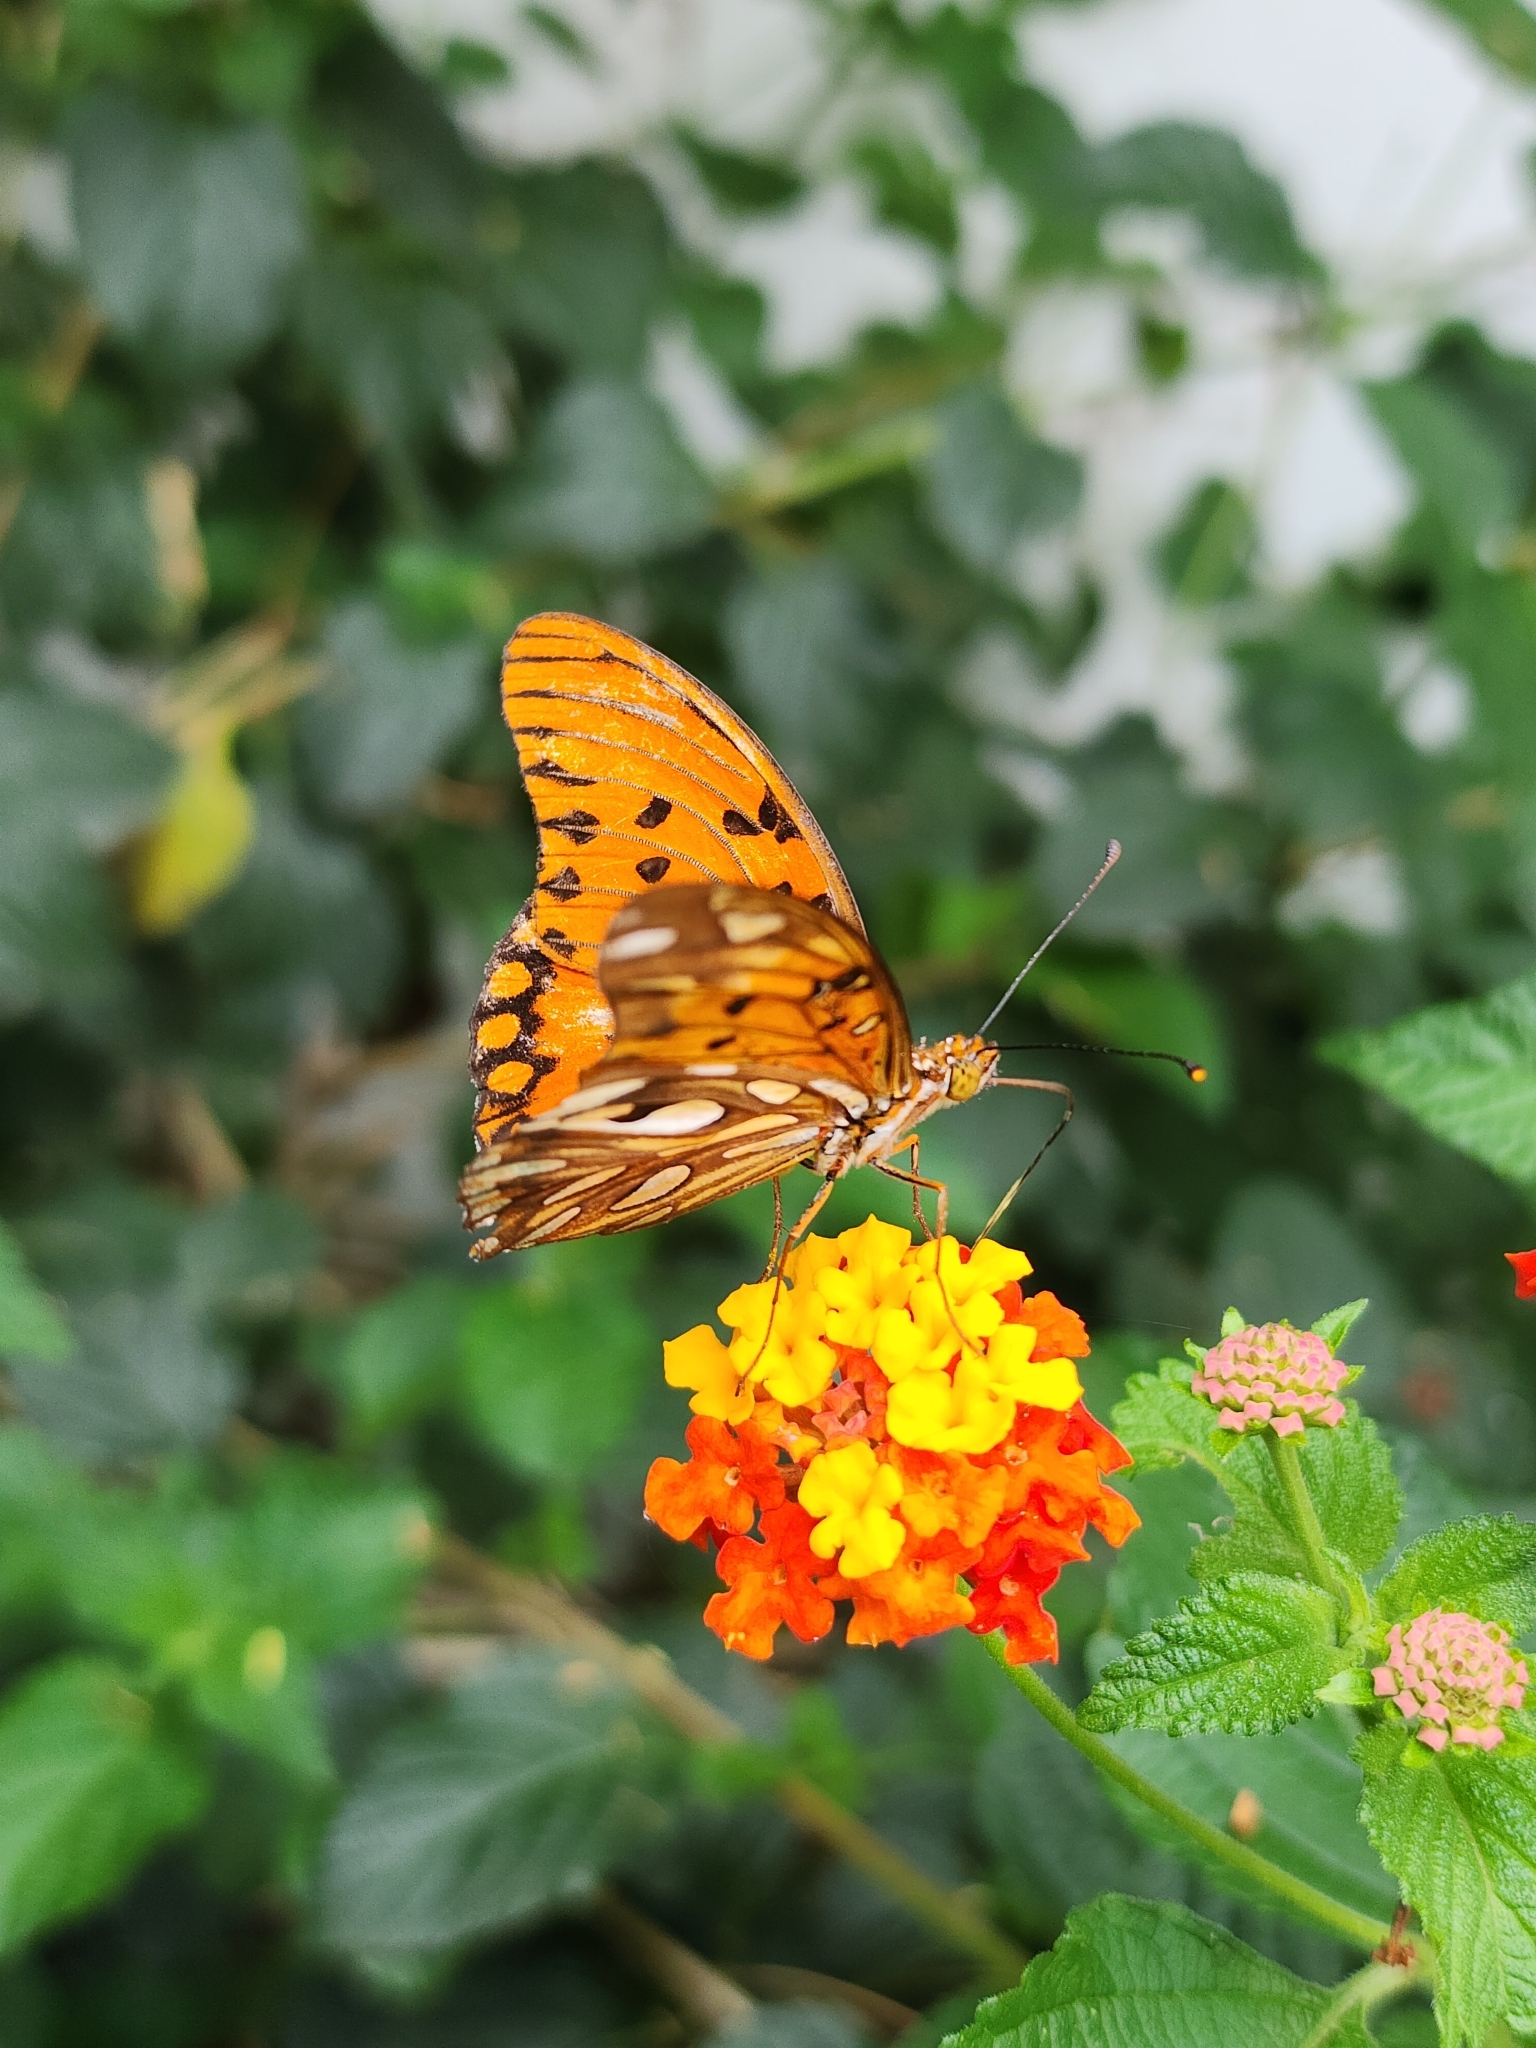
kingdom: Animalia
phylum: Arthropoda
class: Insecta
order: Lepidoptera
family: Nymphalidae
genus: Dione
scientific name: Dione vanillae
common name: Gulf fritillary
